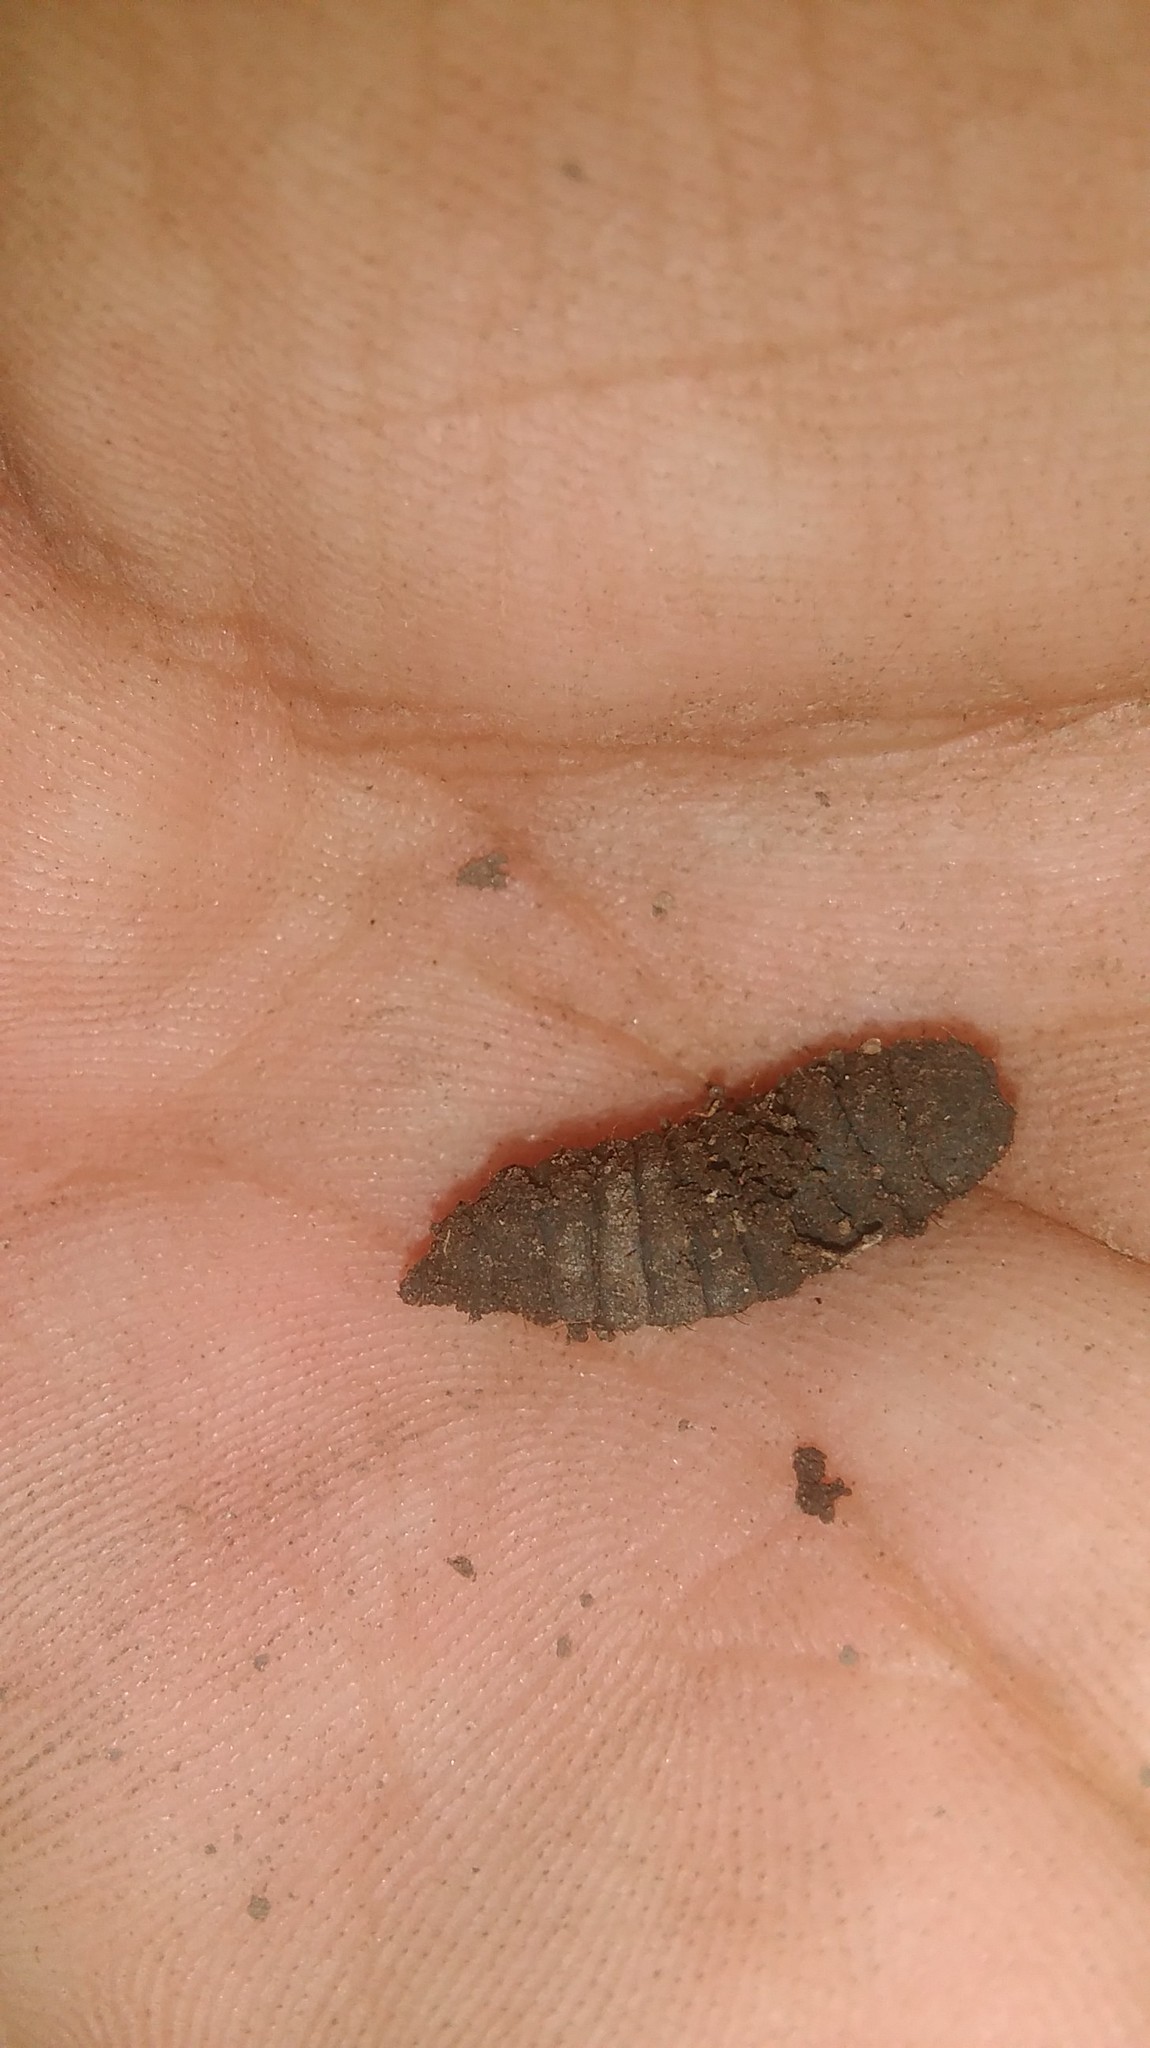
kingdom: Animalia
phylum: Arthropoda
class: Insecta
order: Diptera
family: Stratiomyidae
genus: Hermetia
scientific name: Hermetia illucens
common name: Black soldier fly
